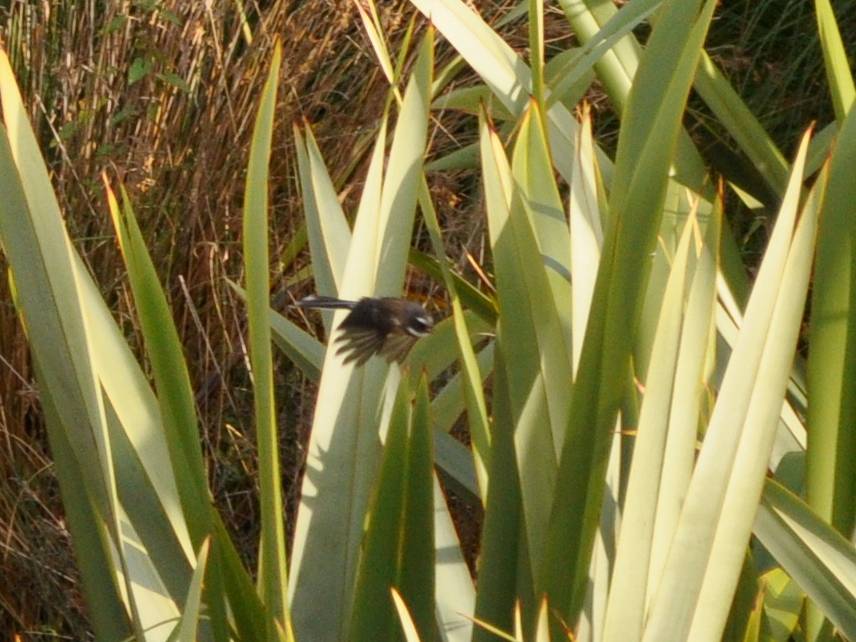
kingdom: Animalia
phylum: Chordata
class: Aves
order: Passeriformes
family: Rhipiduridae
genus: Rhipidura
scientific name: Rhipidura fuliginosa
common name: New zealand fantail
